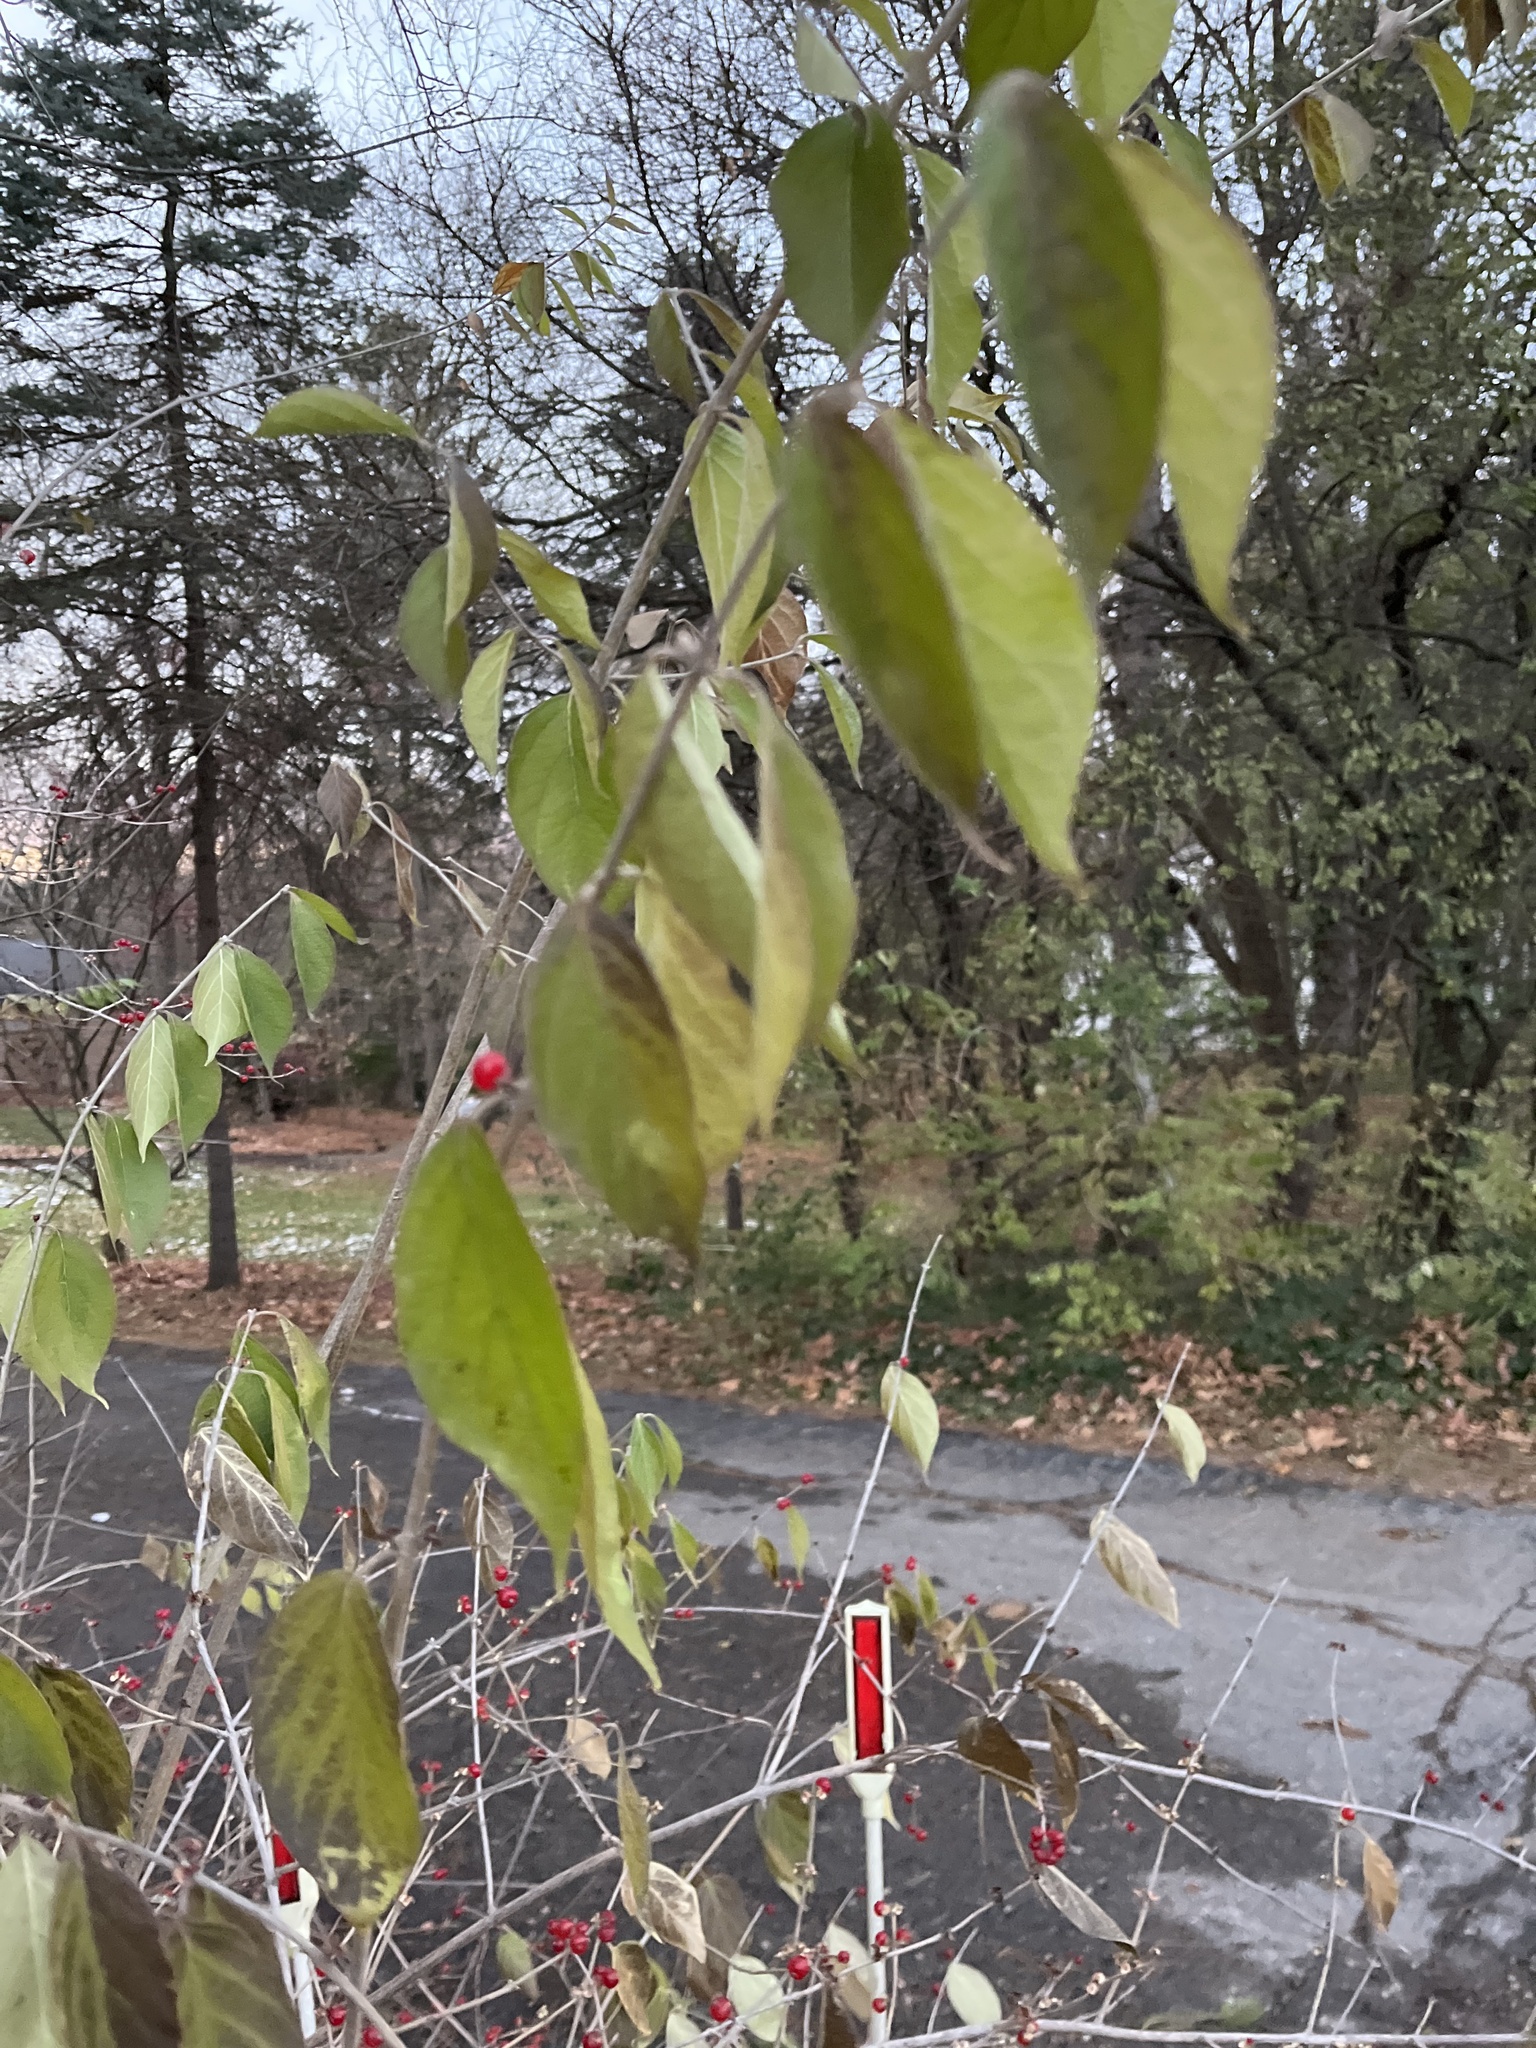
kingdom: Plantae
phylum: Tracheophyta
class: Magnoliopsida
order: Dipsacales
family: Caprifoliaceae
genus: Lonicera
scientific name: Lonicera maackii
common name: Amur honeysuckle
